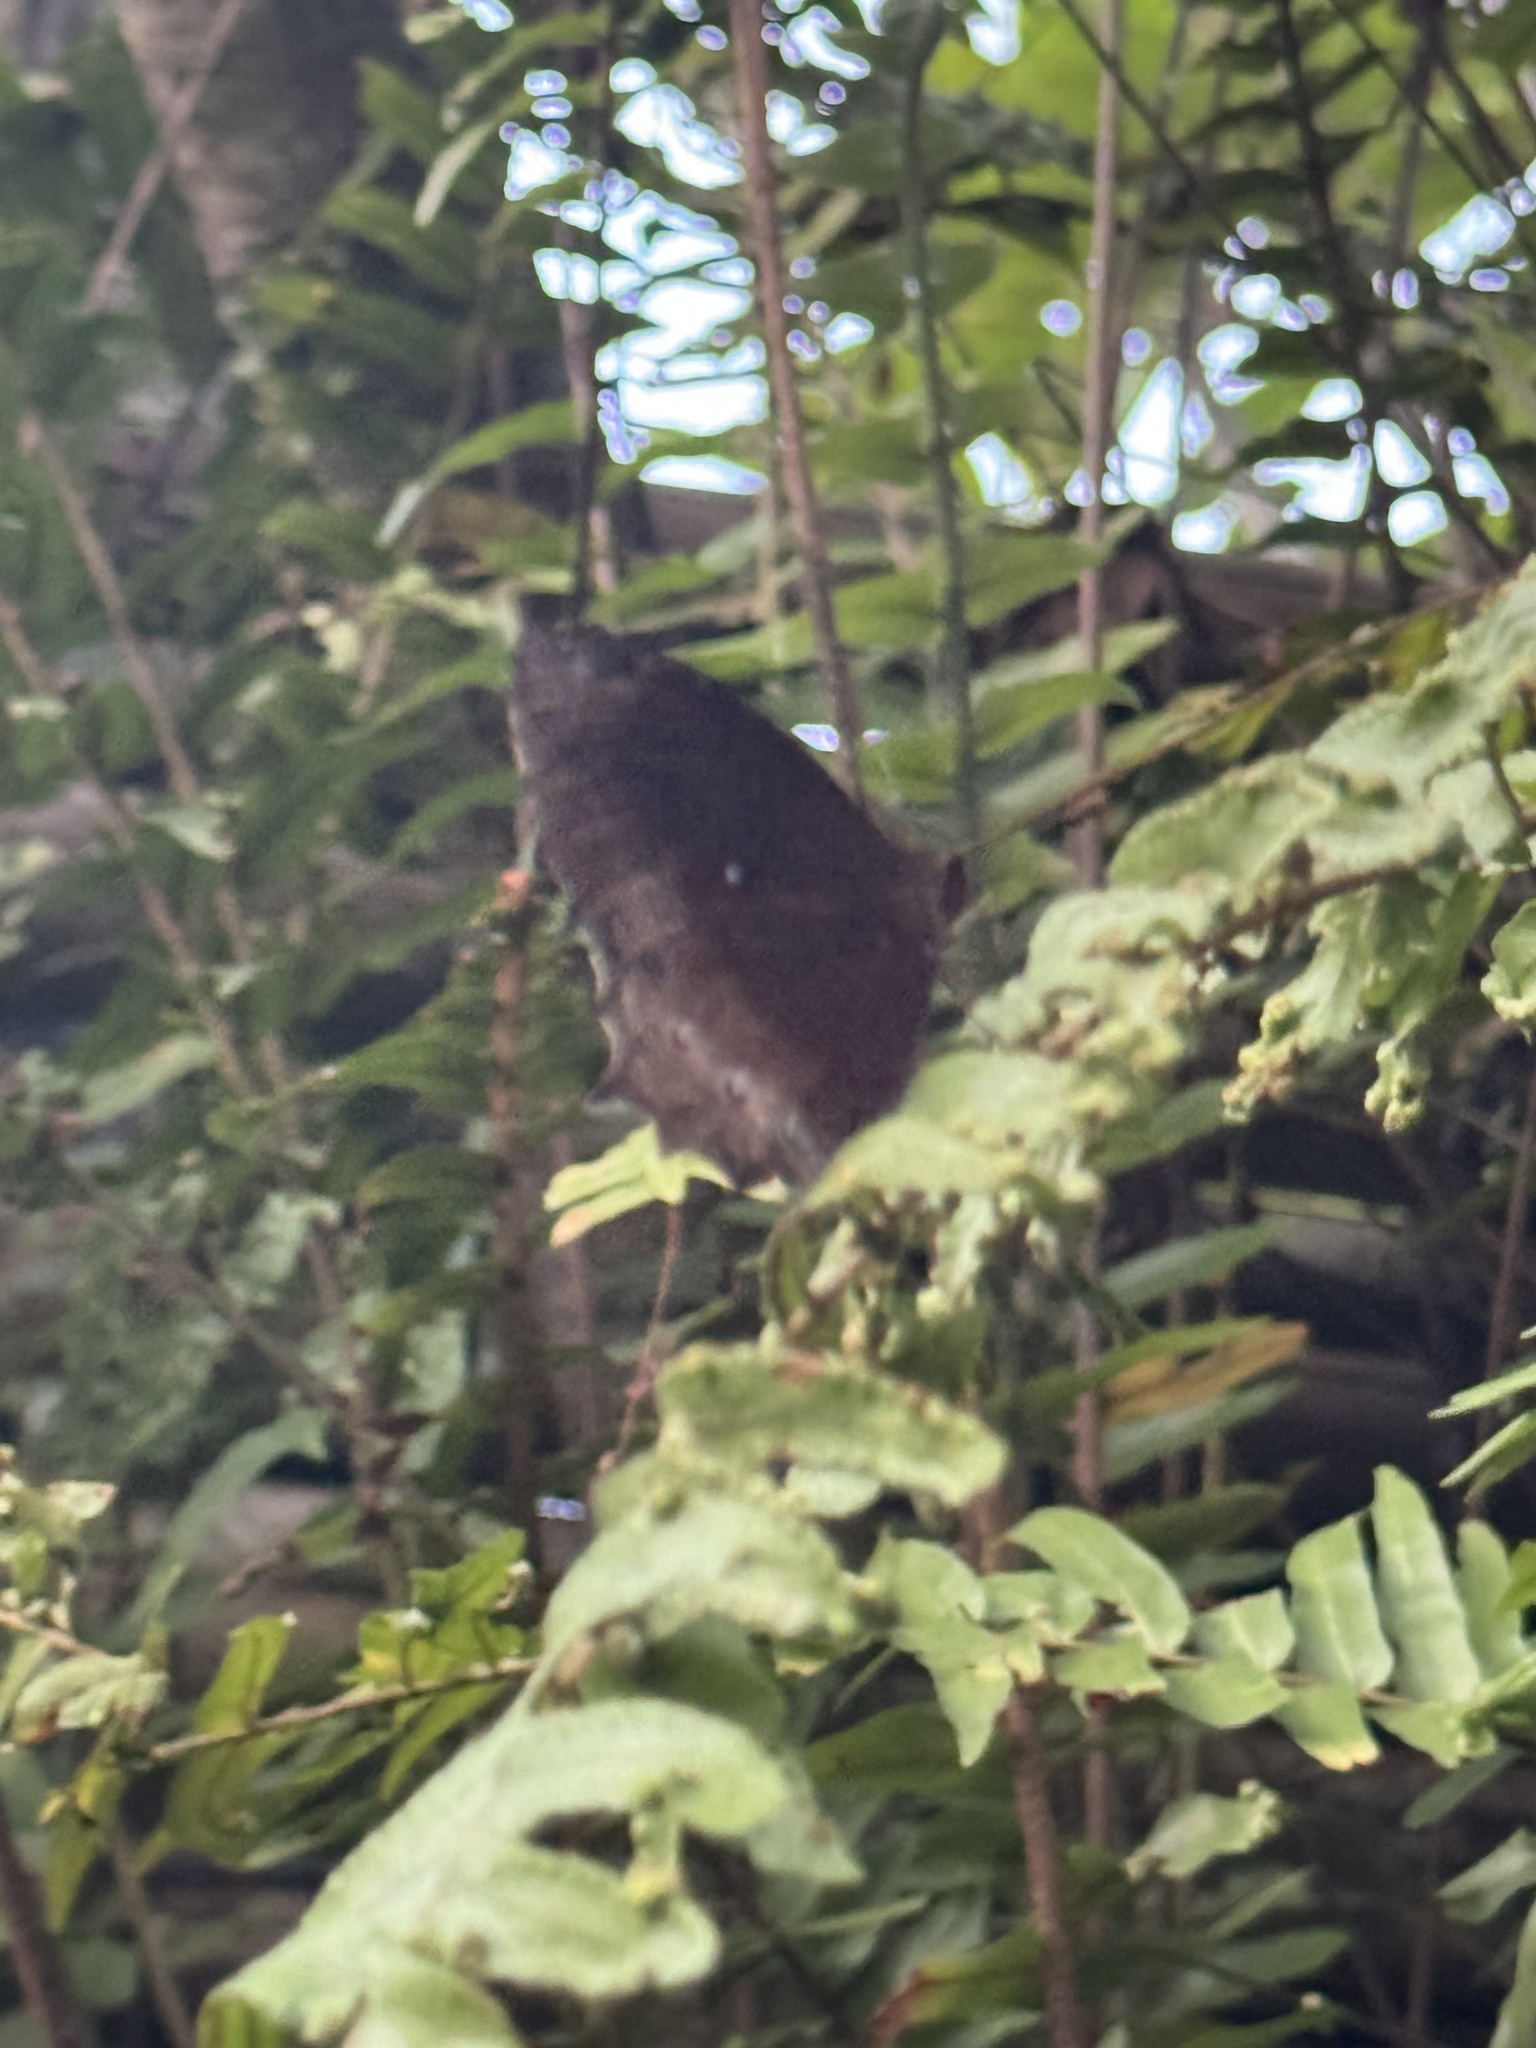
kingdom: Animalia
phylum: Arthropoda
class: Insecta
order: Lepidoptera
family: Nymphalidae
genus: Elymnias
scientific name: Elymnias hypermnestra
